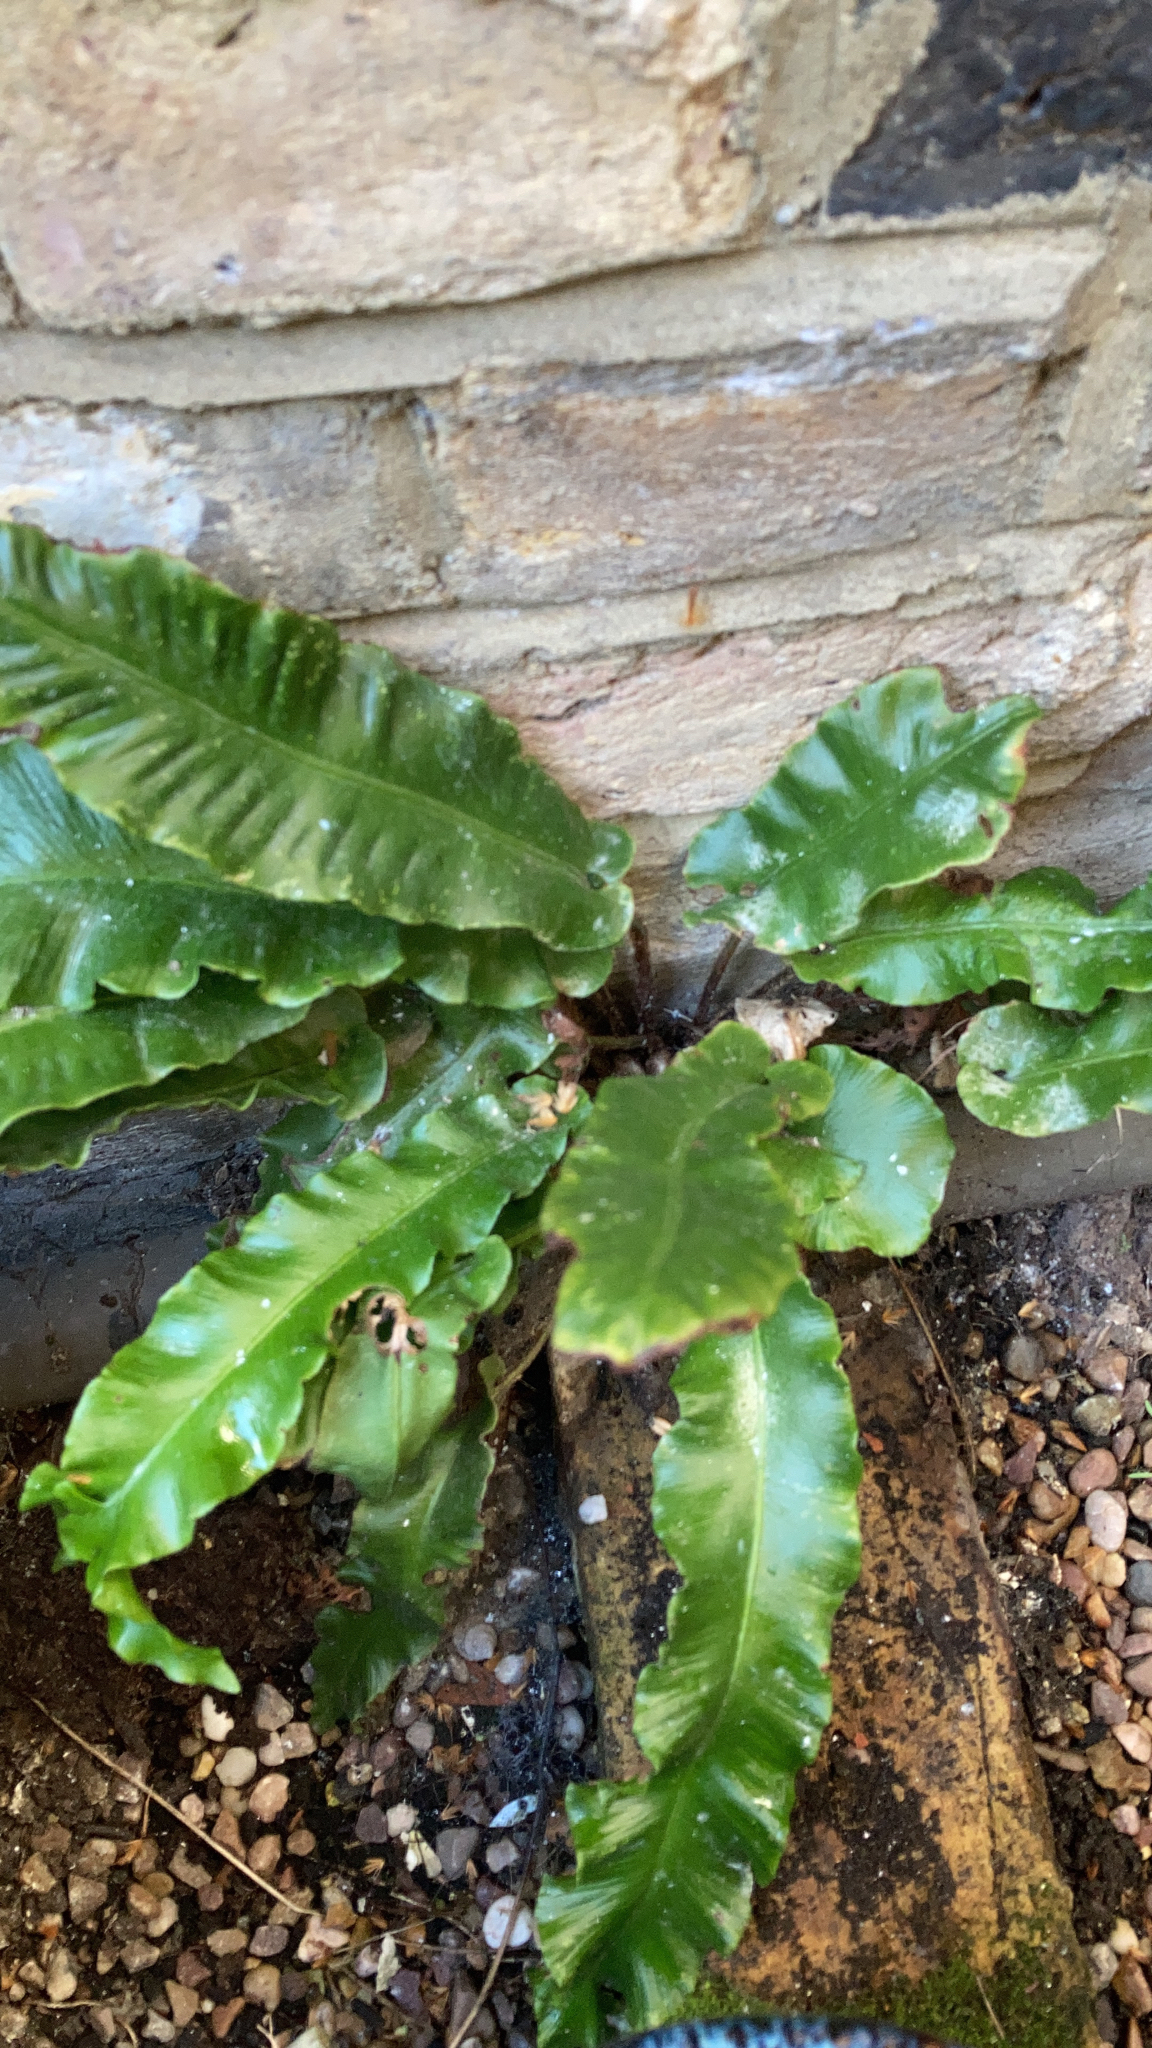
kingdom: Plantae
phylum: Tracheophyta
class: Polypodiopsida
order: Polypodiales
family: Aspleniaceae
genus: Asplenium
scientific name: Asplenium scolopendrium
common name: Hart's-tongue fern
